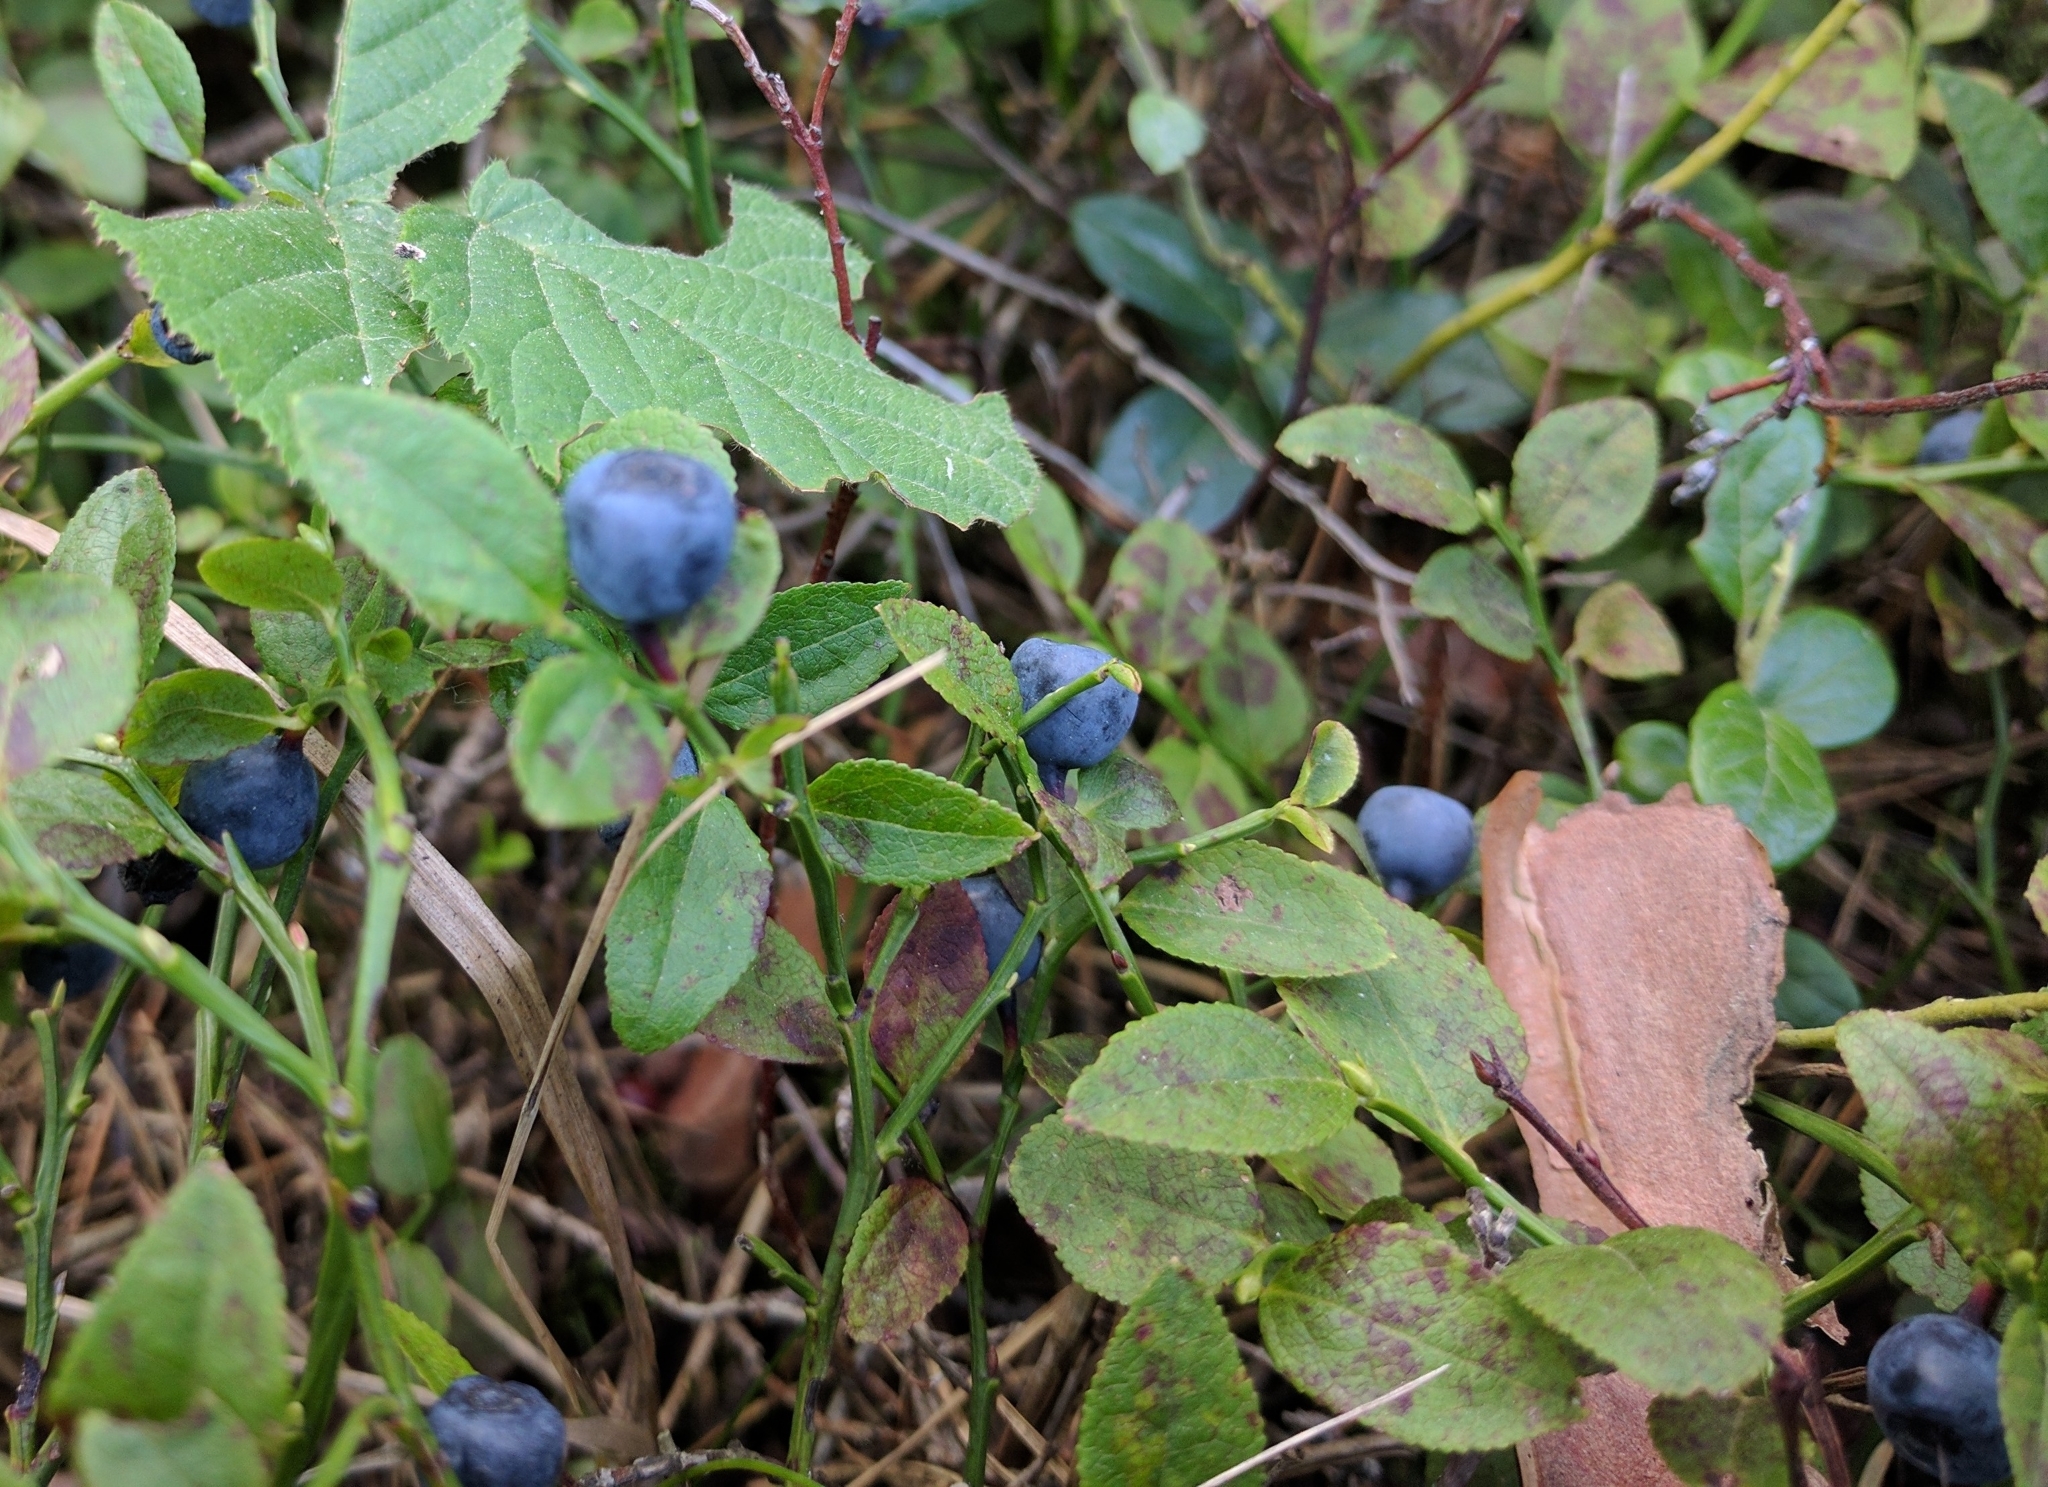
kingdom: Plantae
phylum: Tracheophyta
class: Magnoliopsida
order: Ericales
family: Ericaceae
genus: Vaccinium
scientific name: Vaccinium myrtillus
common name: Bilberry
